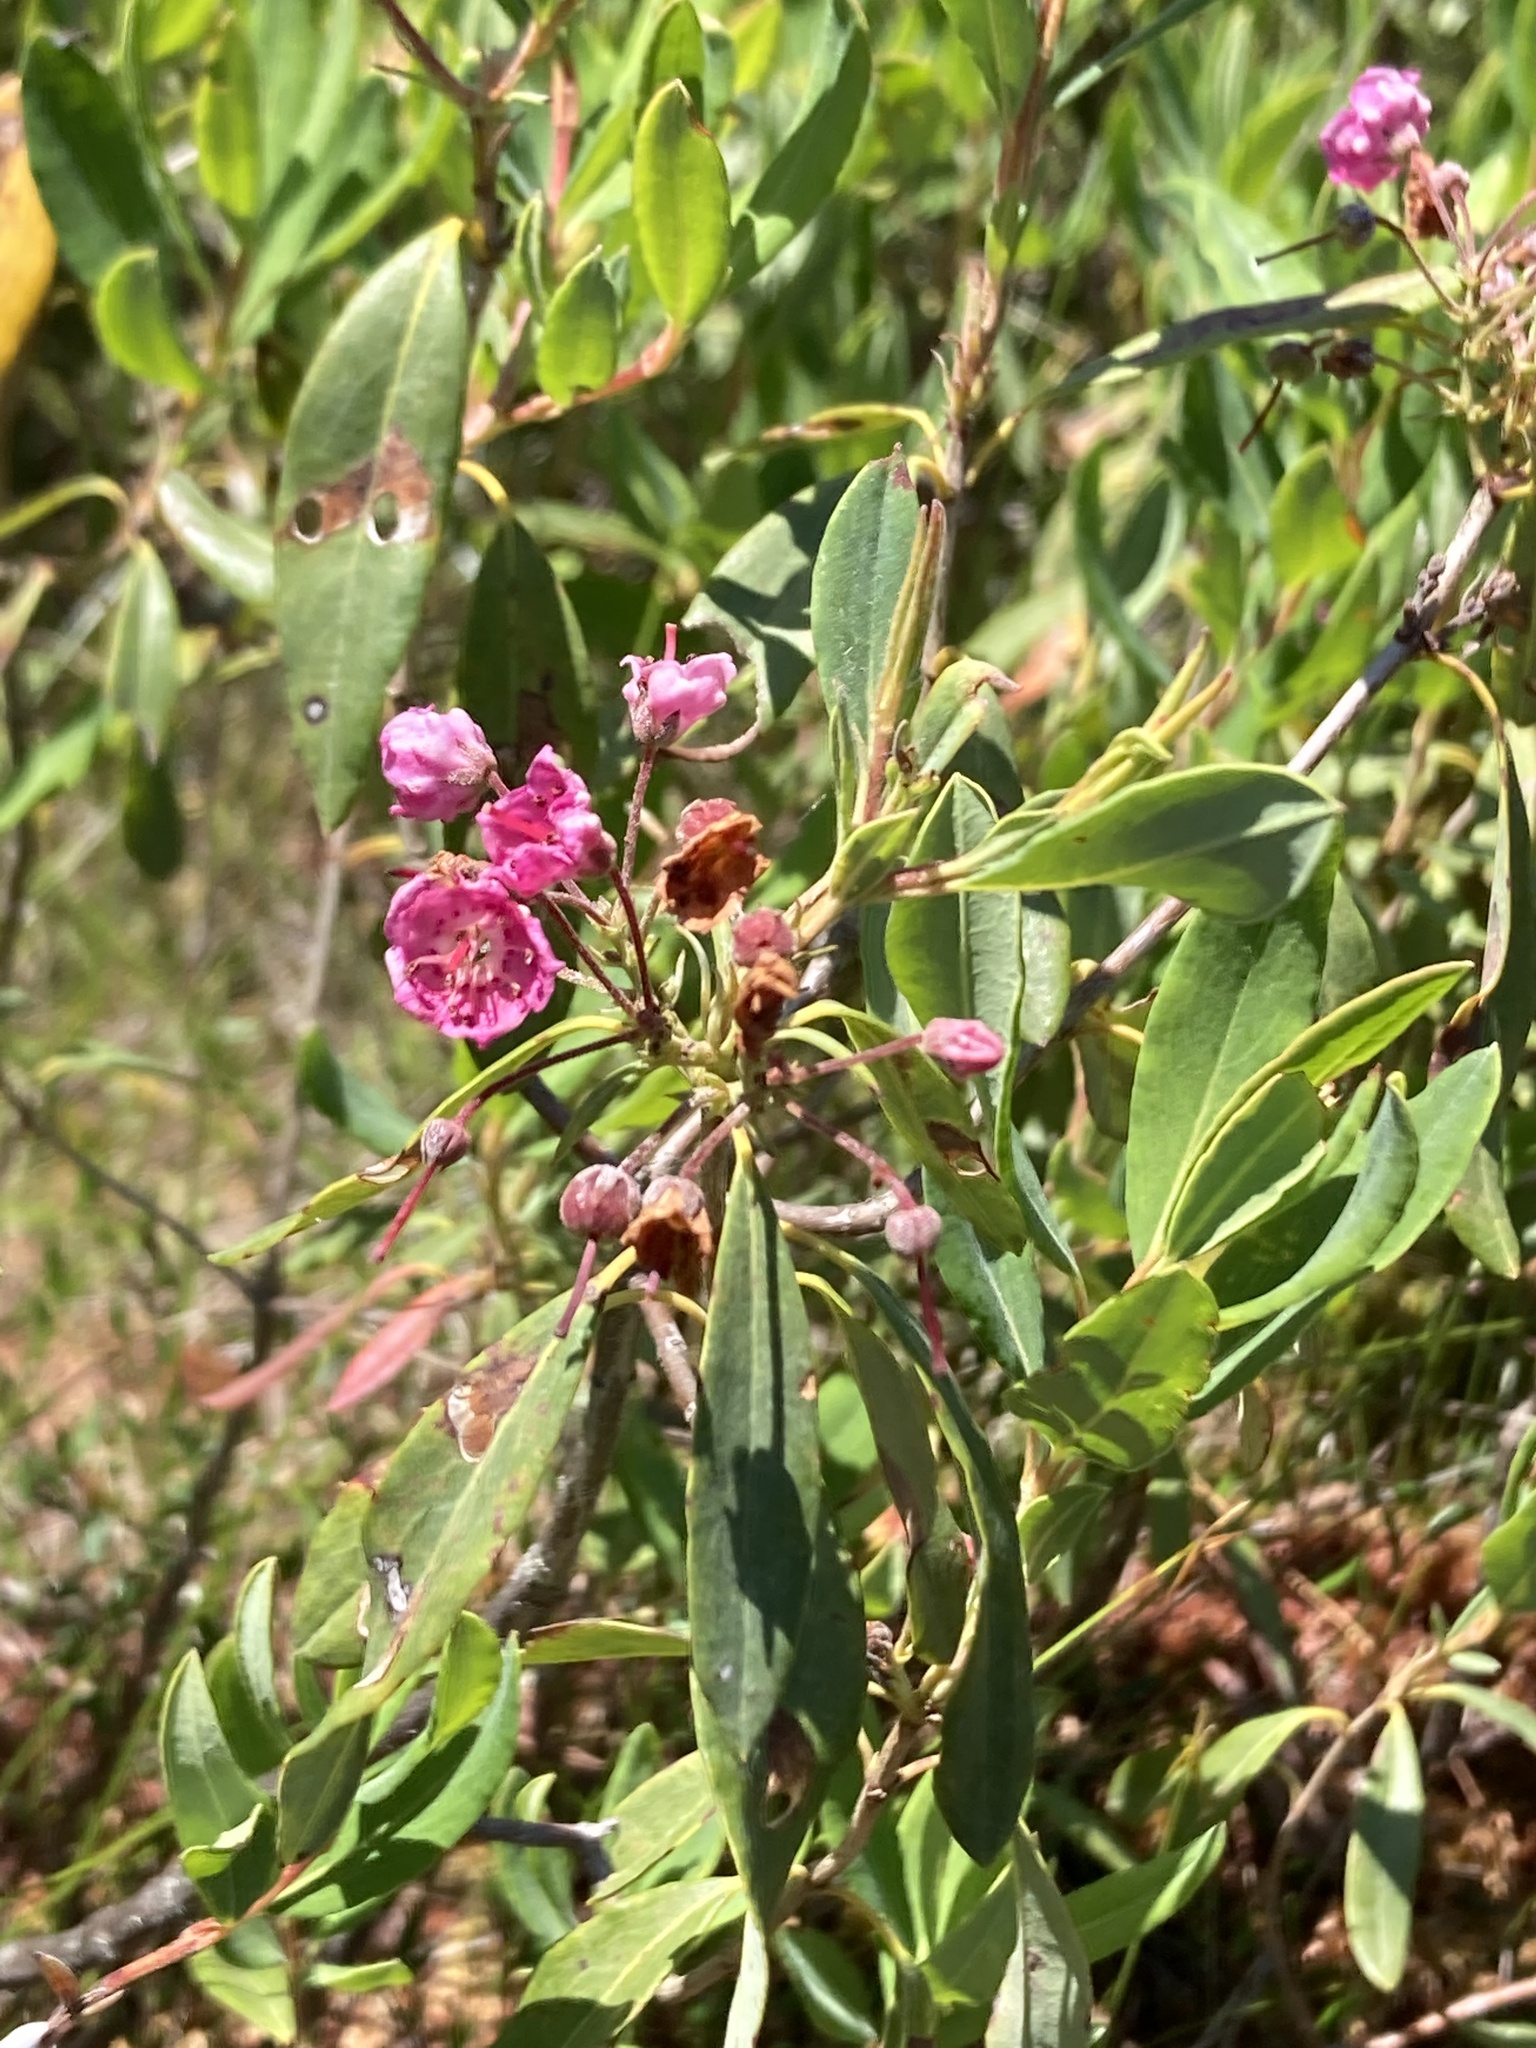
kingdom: Plantae
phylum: Tracheophyta
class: Magnoliopsida
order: Ericales
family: Ericaceae
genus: Kalmia
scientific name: Kalmia angustifolia
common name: Sheep-laurel
